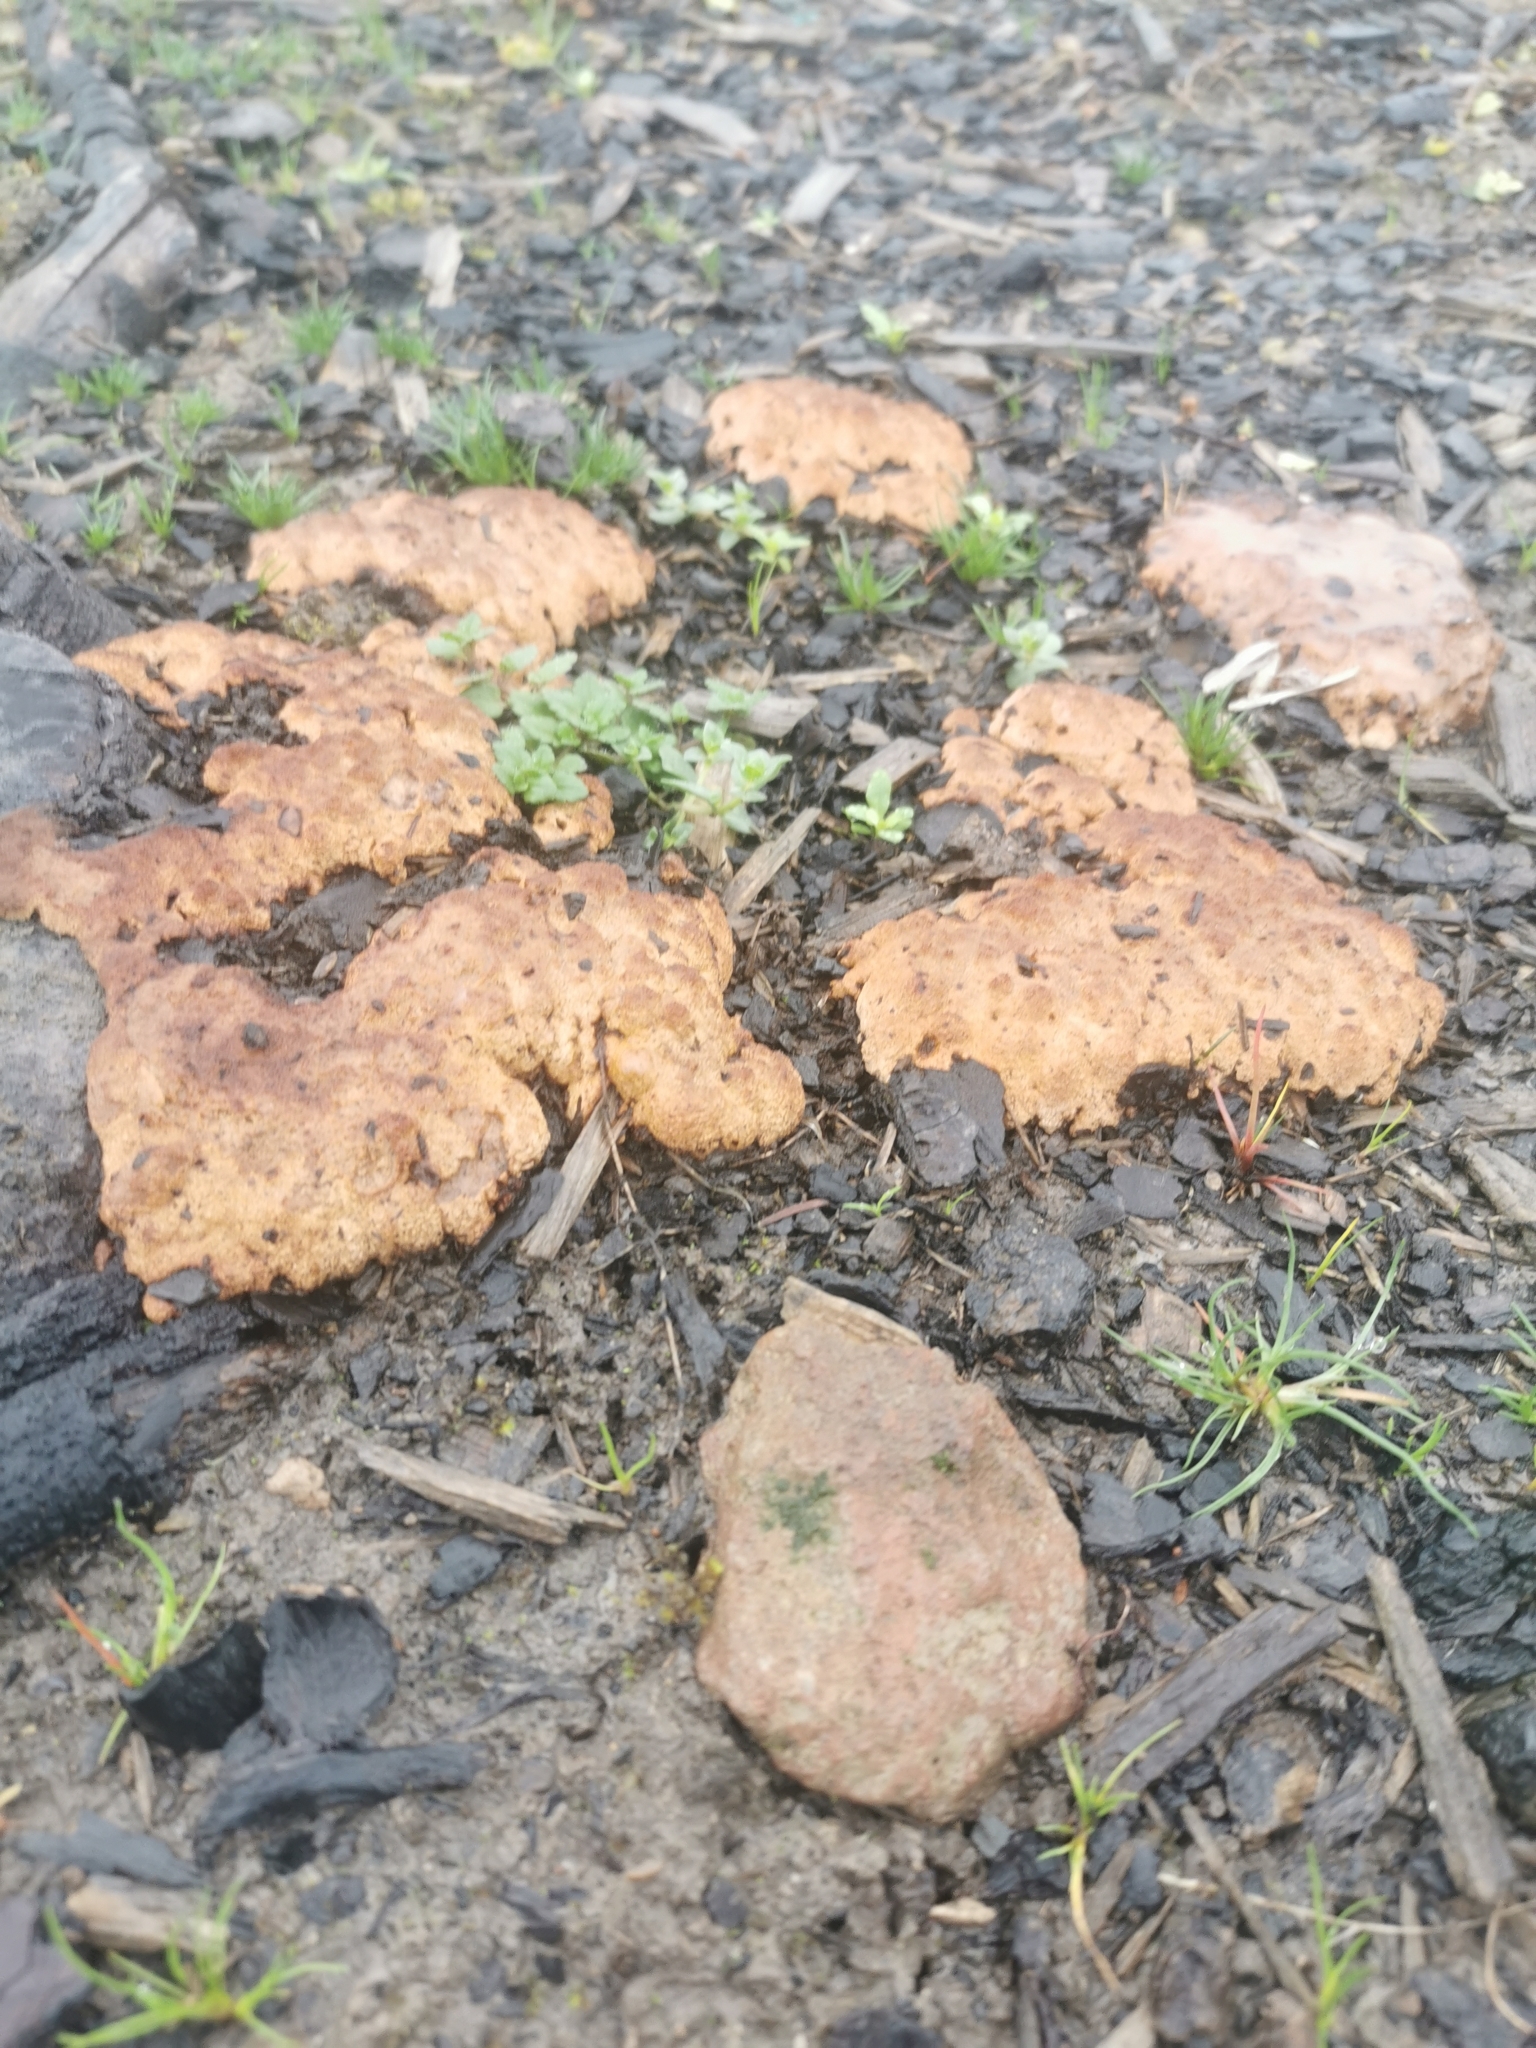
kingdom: Protozoa
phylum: Mycetozoa
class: Myxomycetes
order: Physarales
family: Physaraceae
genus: Fuligo
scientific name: Fuligo septica
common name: Dog vomit slime mold
